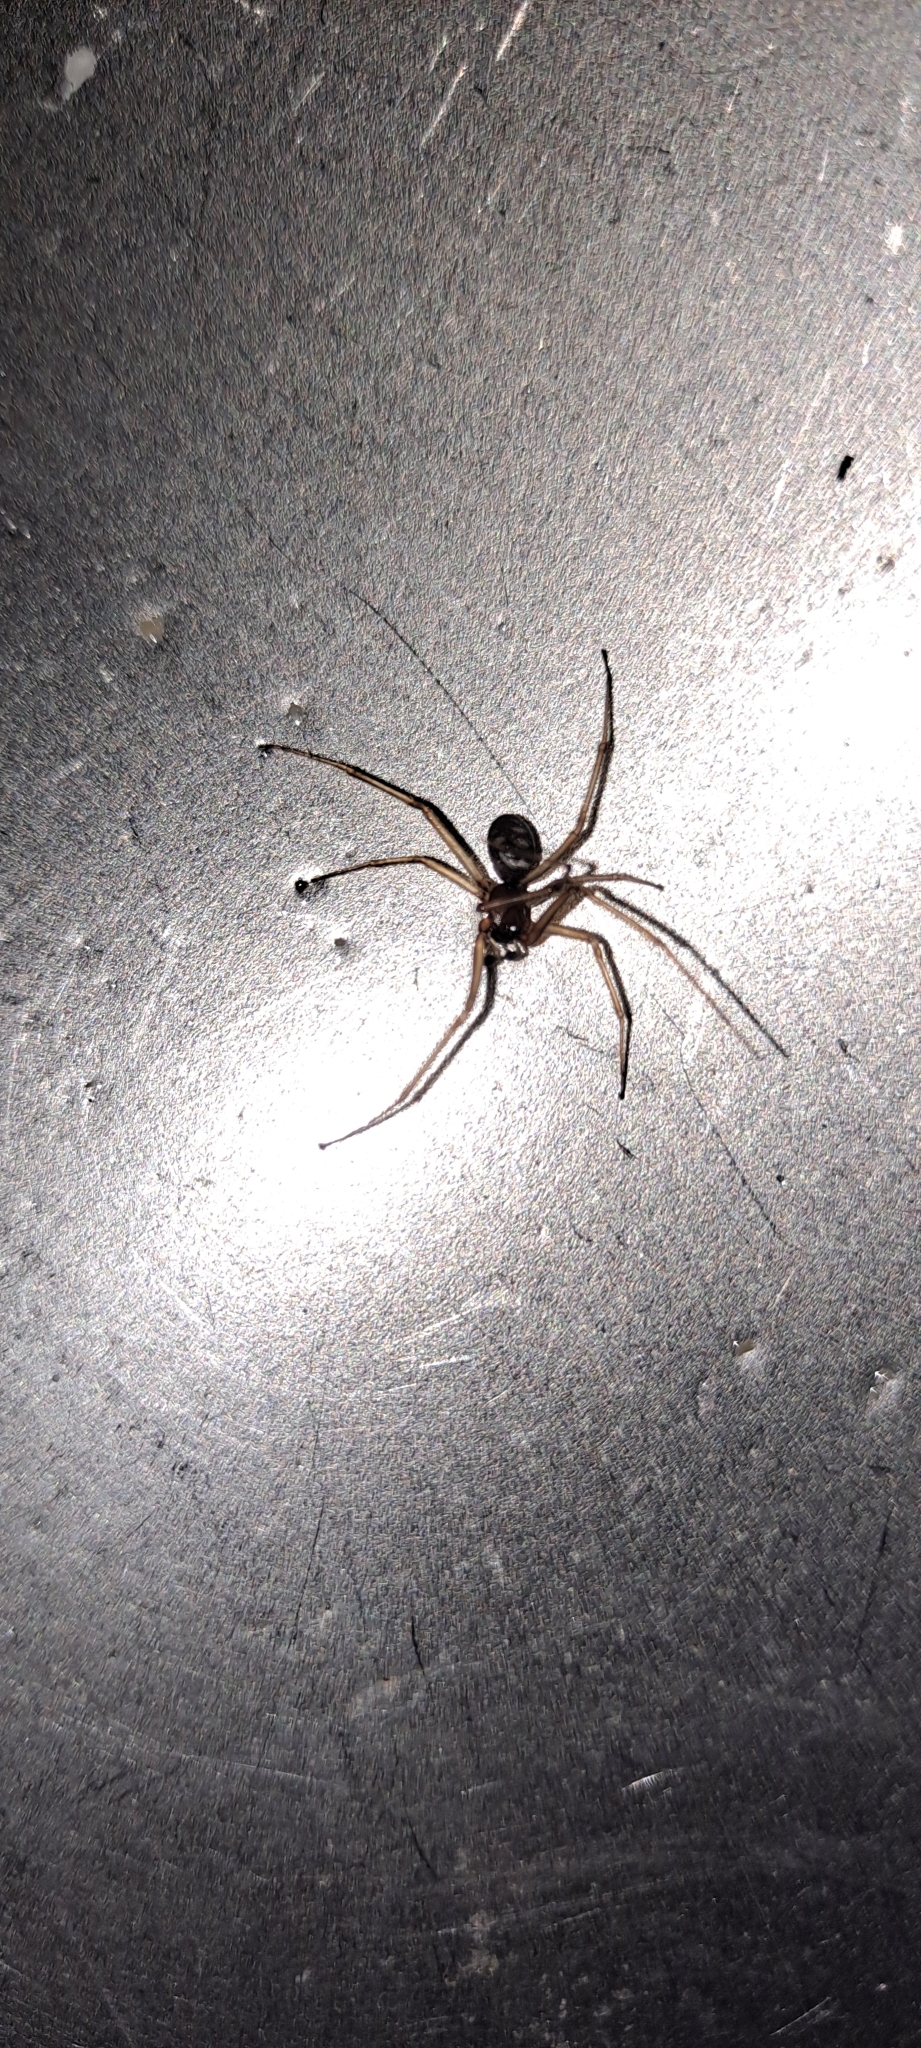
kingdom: Animalia
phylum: Arthropoda
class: Arachnida
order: Araneae
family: Theridiidae
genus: Steatoda
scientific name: Steatoda grossa
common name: False black widow
